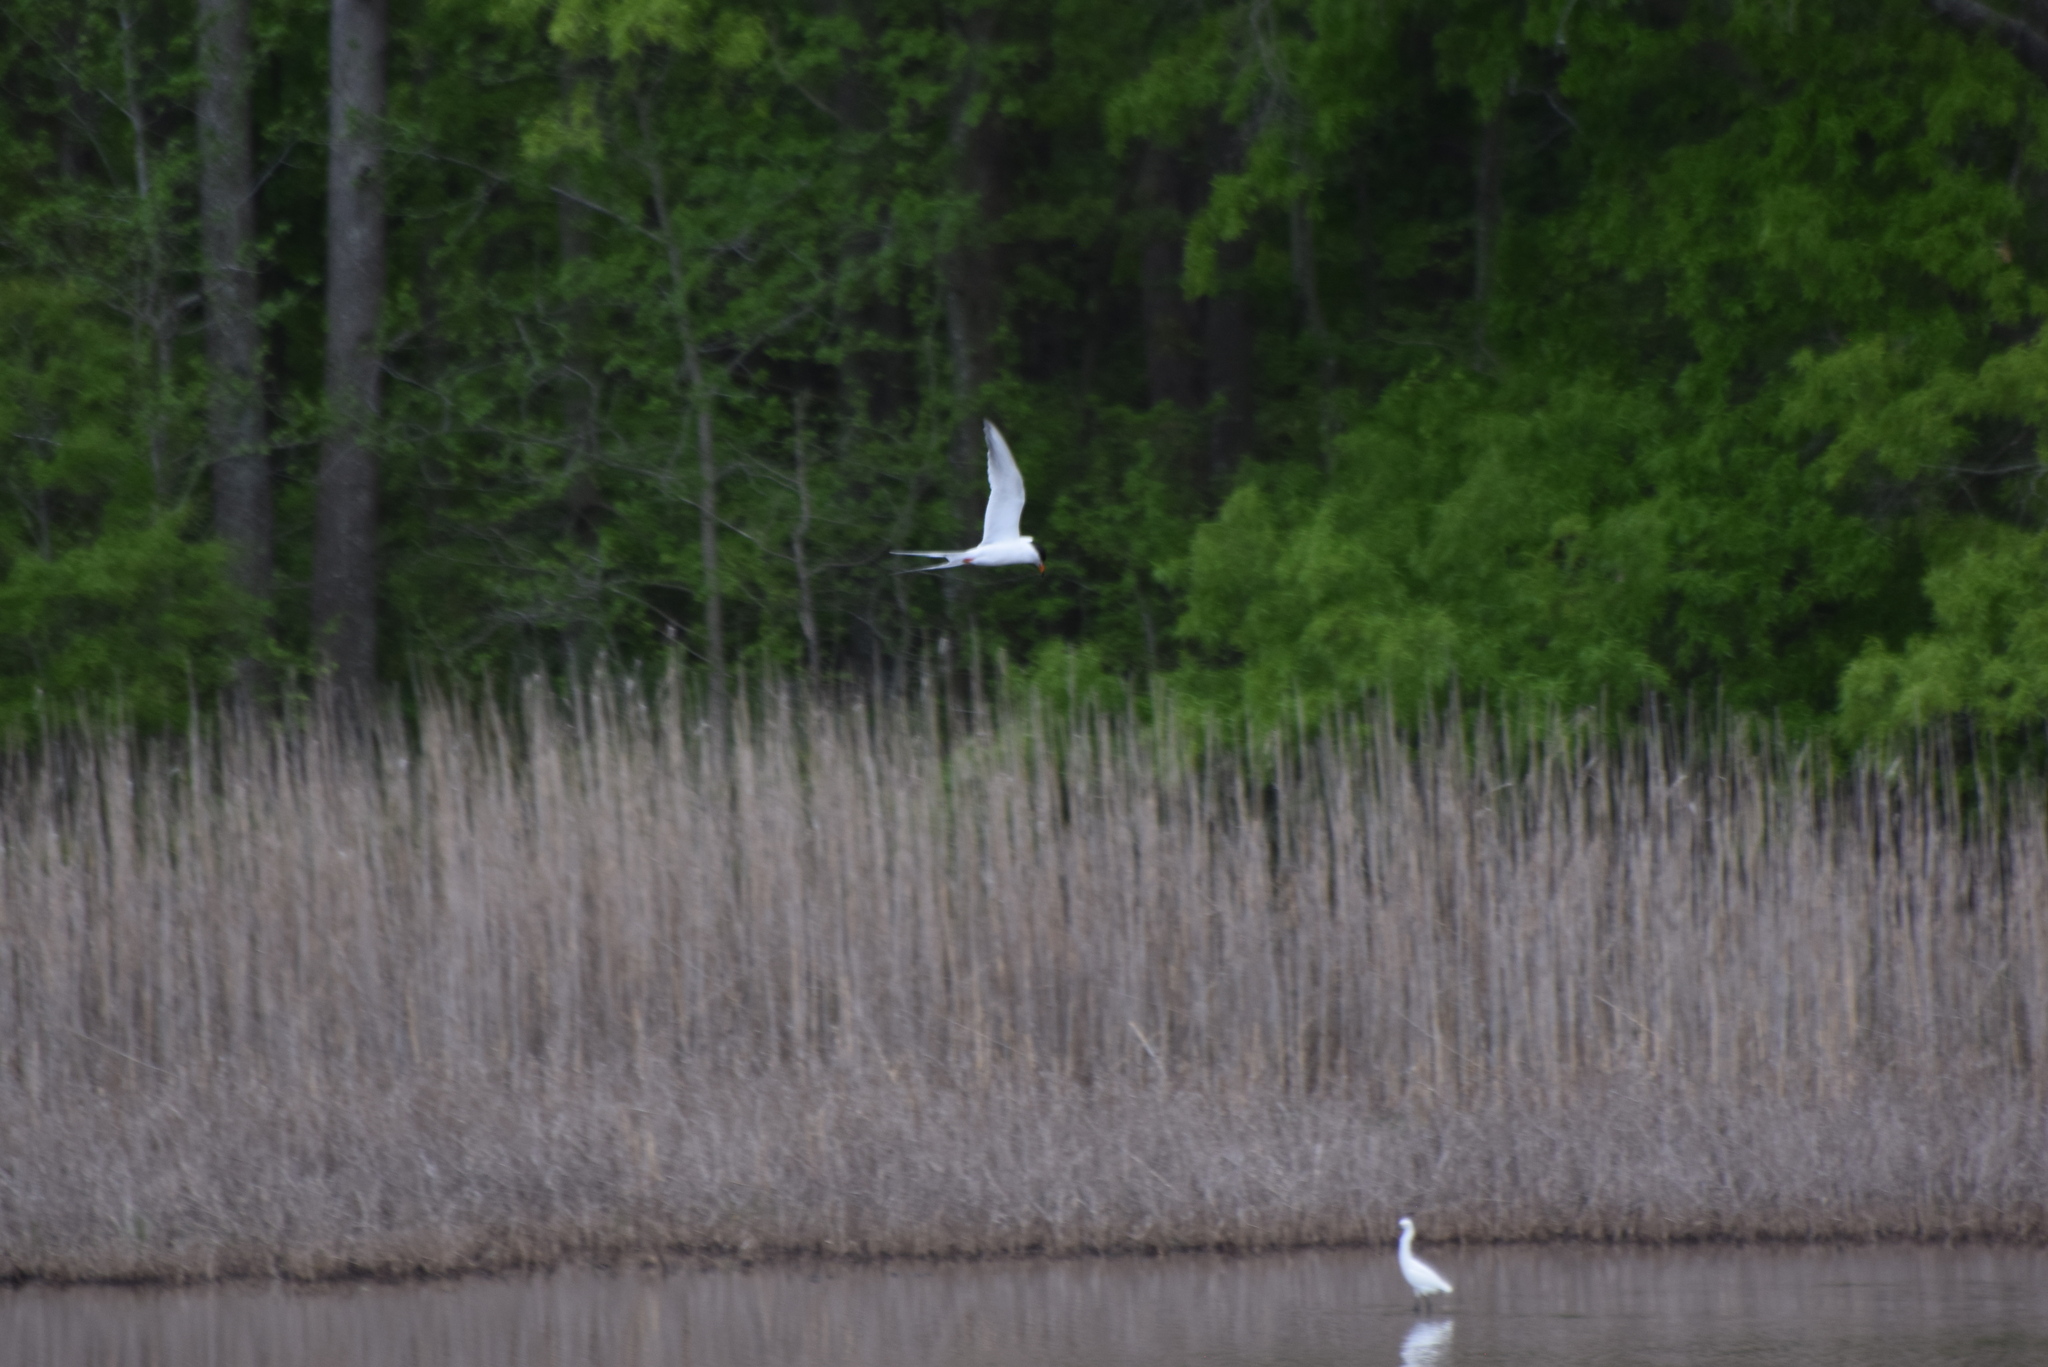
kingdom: Animalia
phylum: Chordata
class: Aves
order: Charadriiformes
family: Laridae
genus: Sterna
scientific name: Sterna forsteri
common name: Forster's tern
